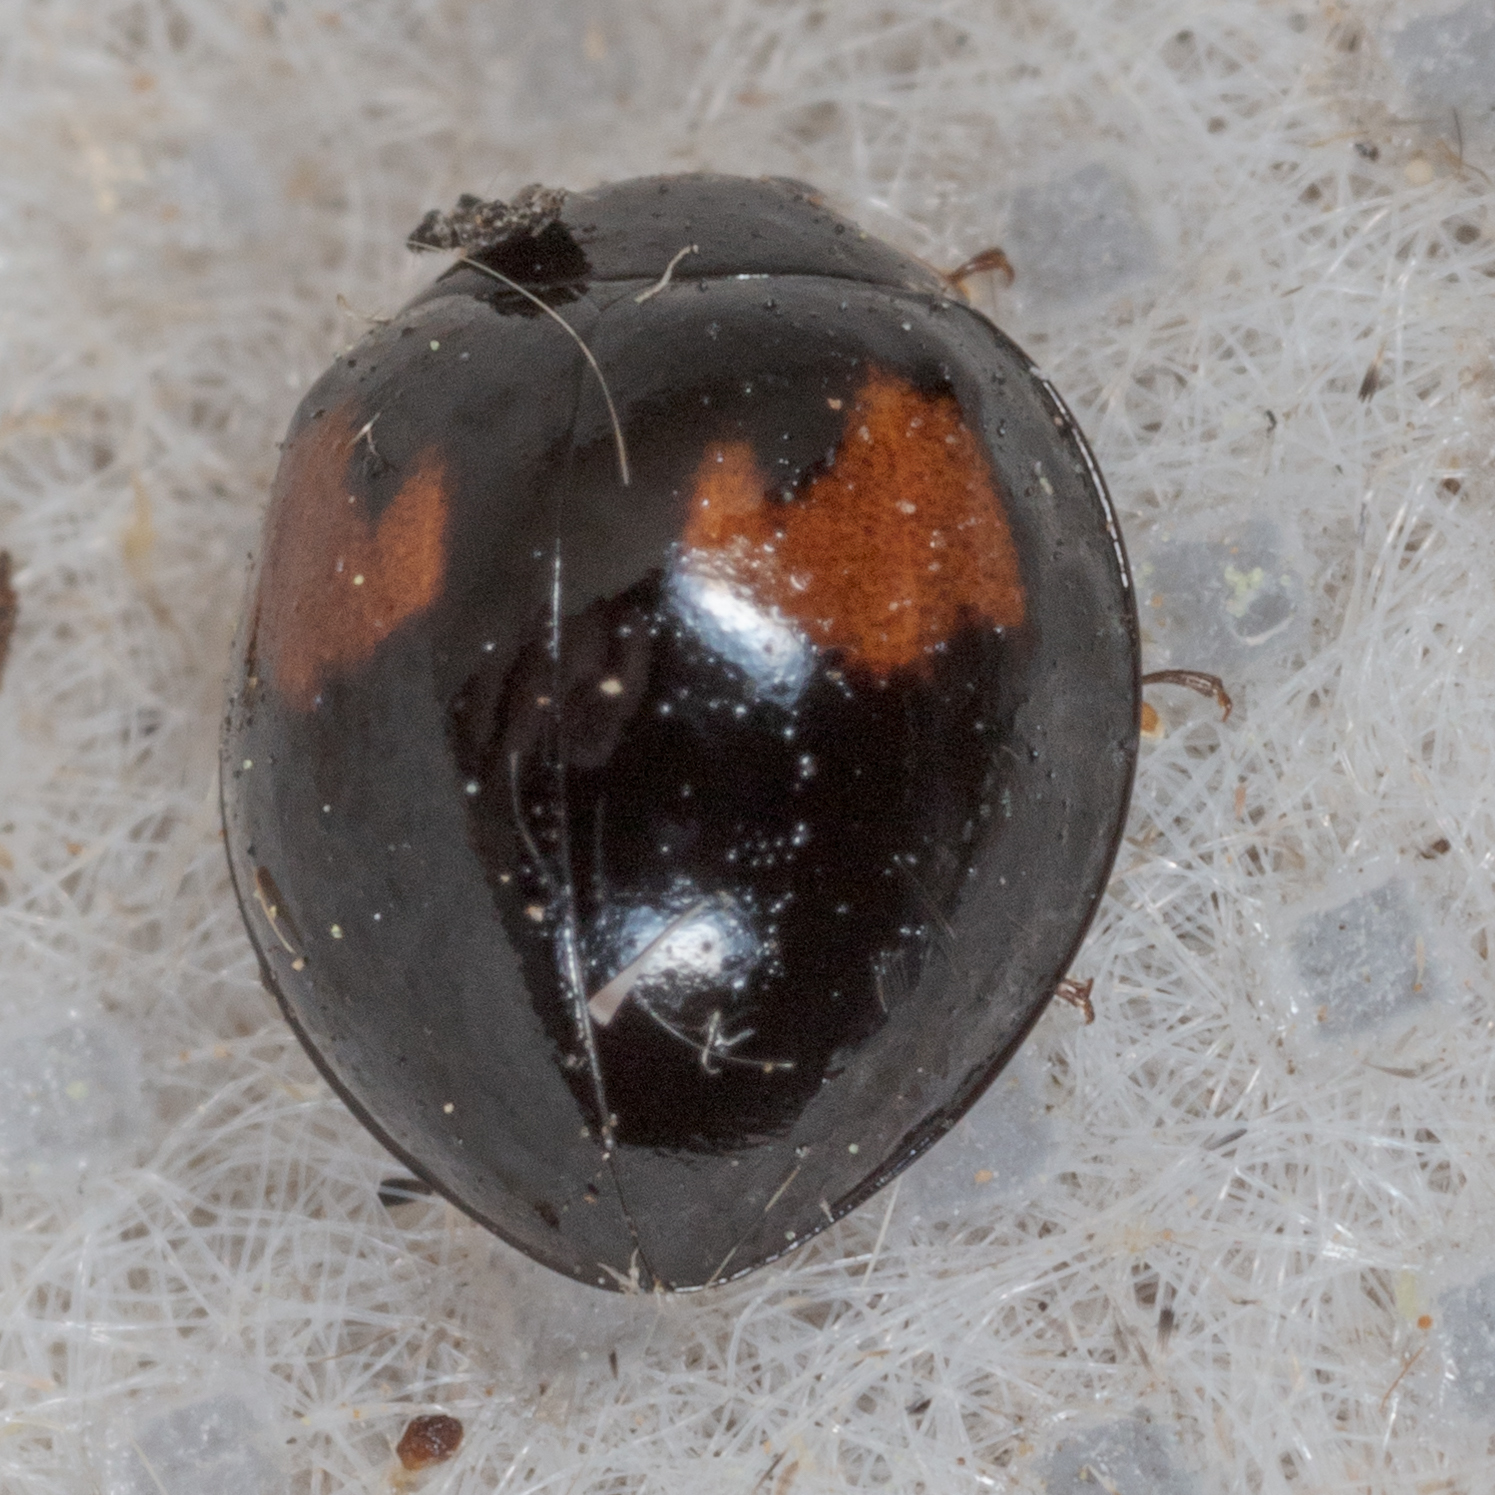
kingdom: Animalia
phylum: Arthropoda
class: Insecta
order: Coleoptera
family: Coccinellidae
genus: Olla
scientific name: Olla v-nigrum
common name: Ashy gray lady beetle
